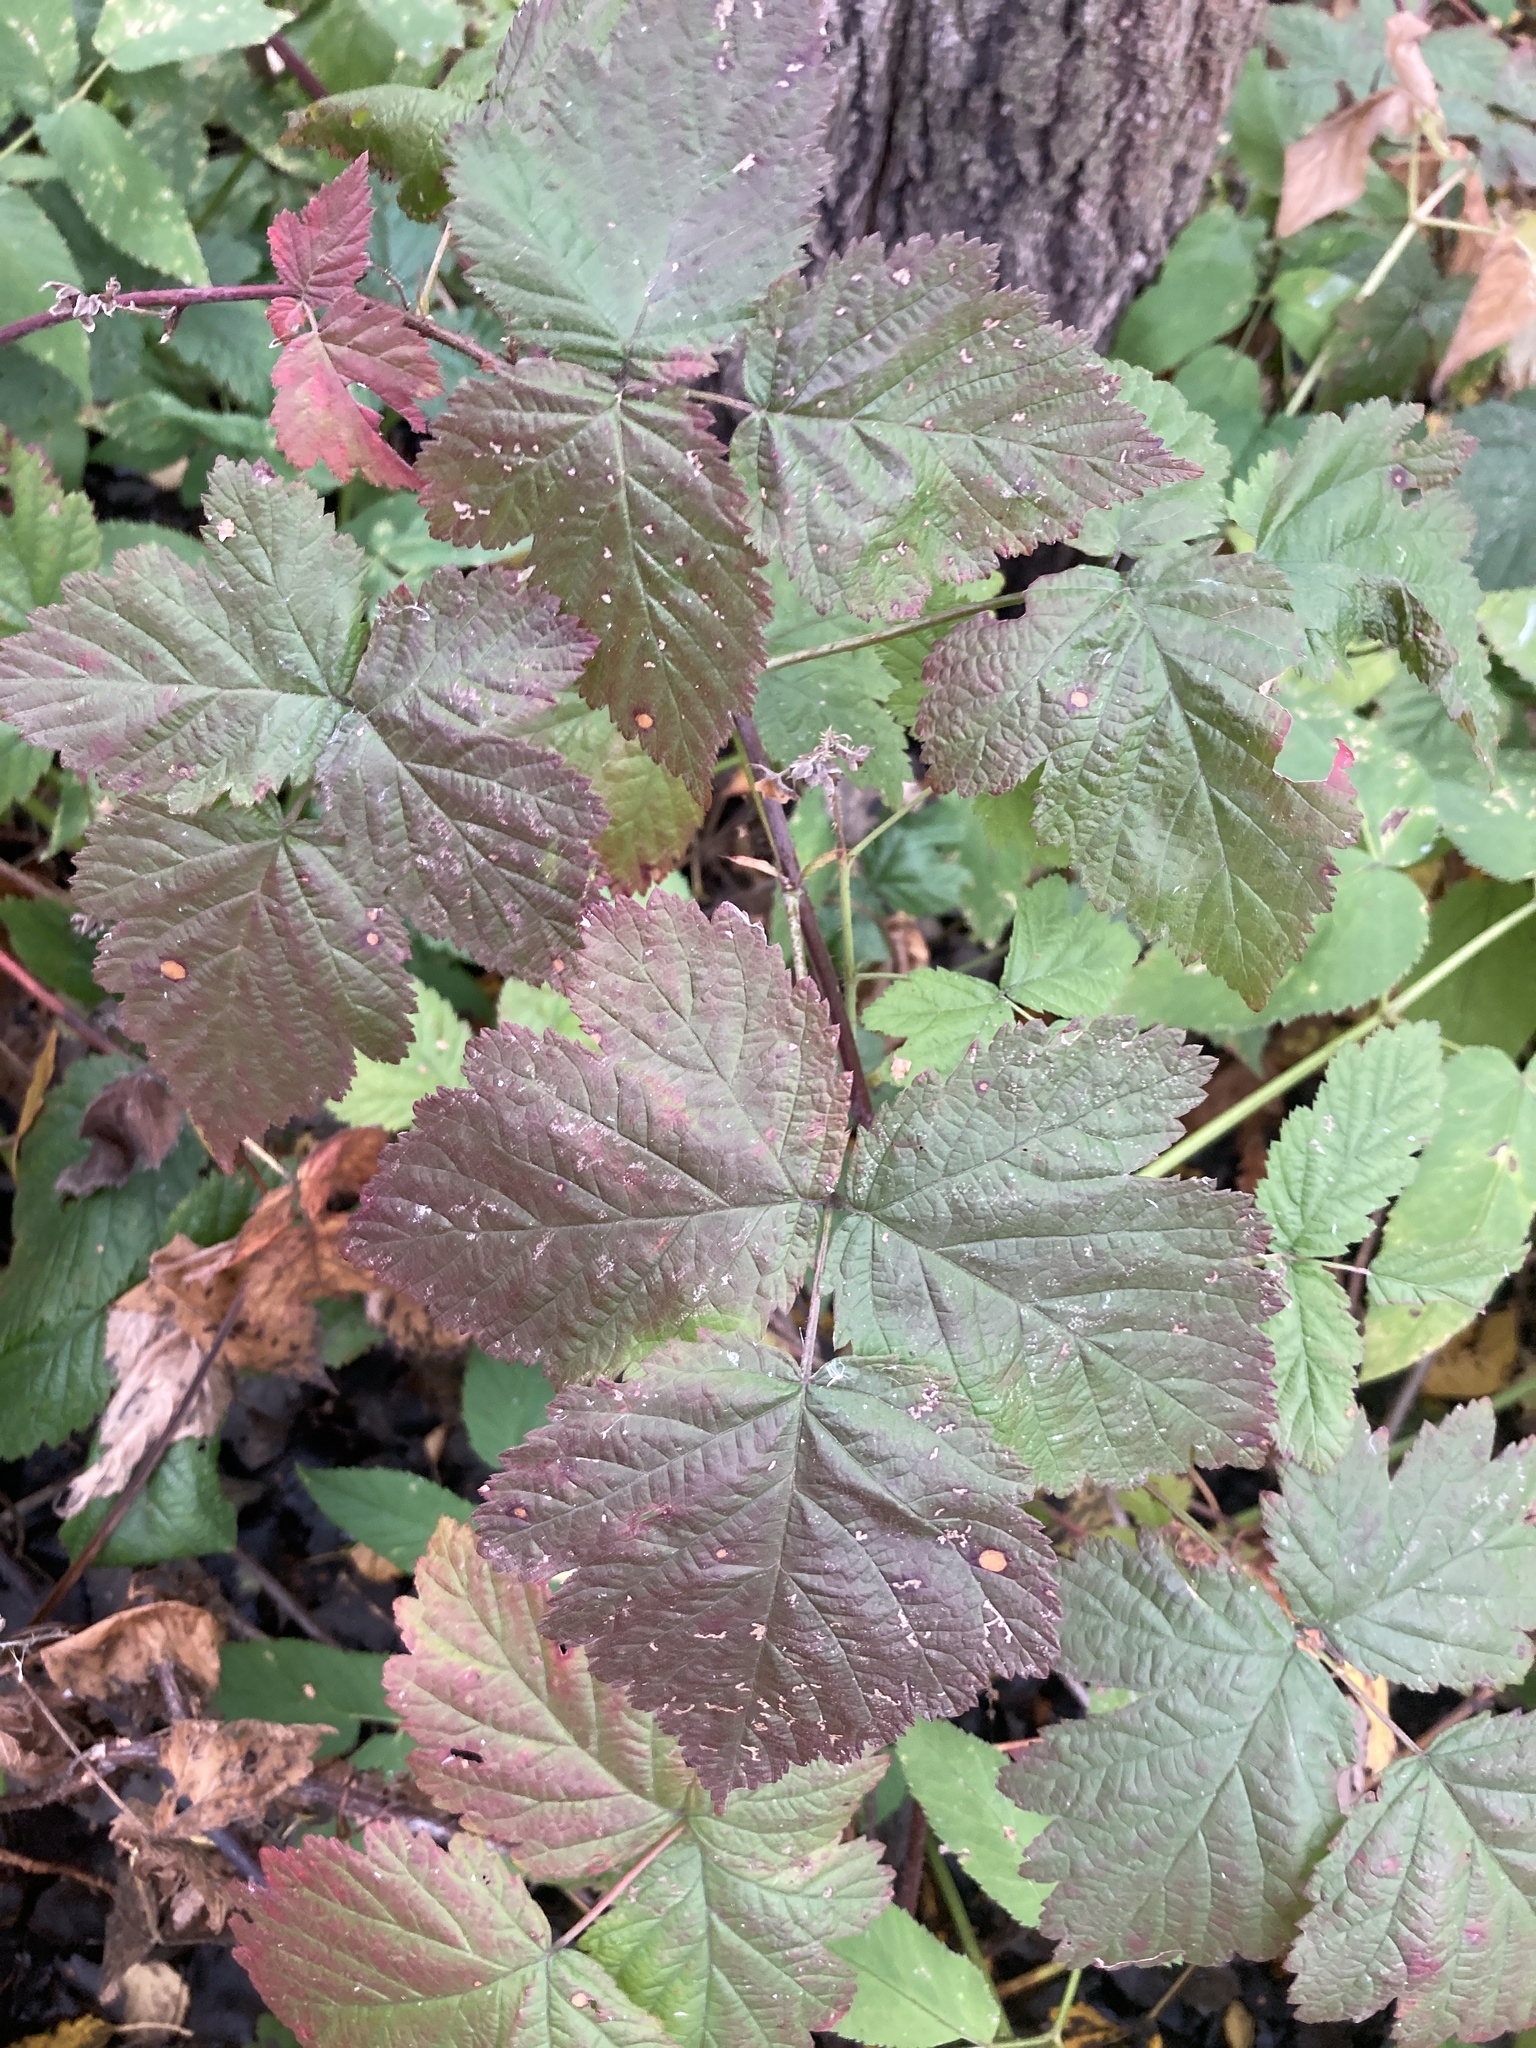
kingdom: Plantae
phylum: Tracheophyta
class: Magnoliopsida
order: Rosales
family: Rosaceae
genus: Rubus
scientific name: Rubus caesius
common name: Dewberry
